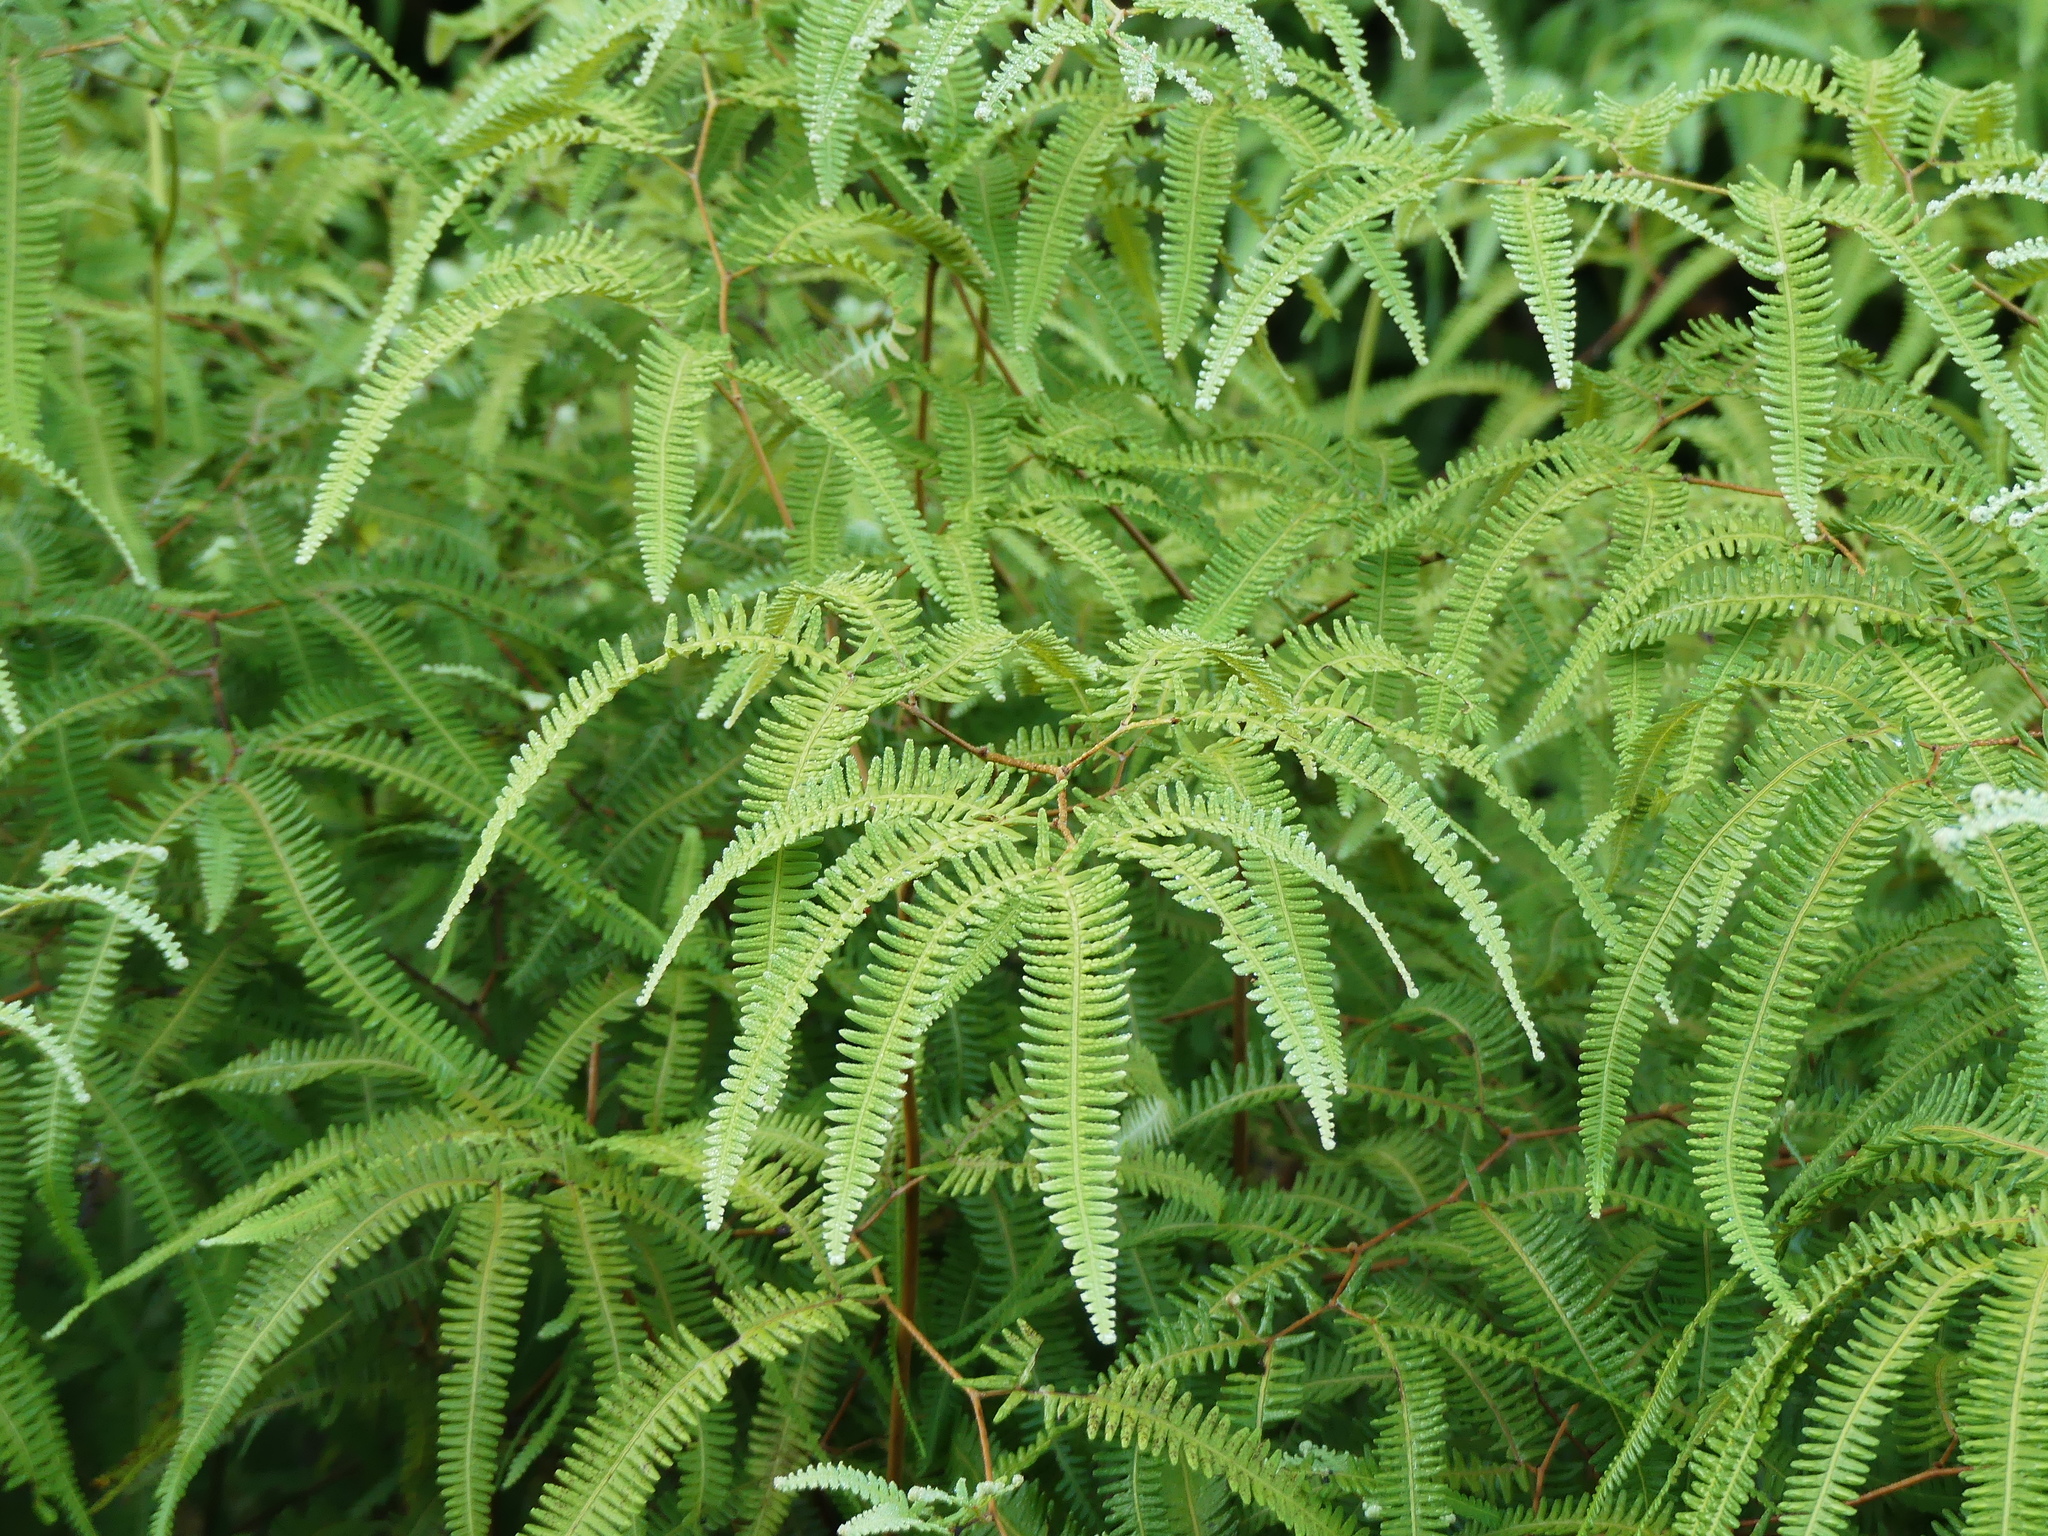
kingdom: Plantae
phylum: Tracheophyta
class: Polypodiopsida
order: Gleicheniales
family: Gleicheniaceae
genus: Gleichenella
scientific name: Gleichenella pectinata
